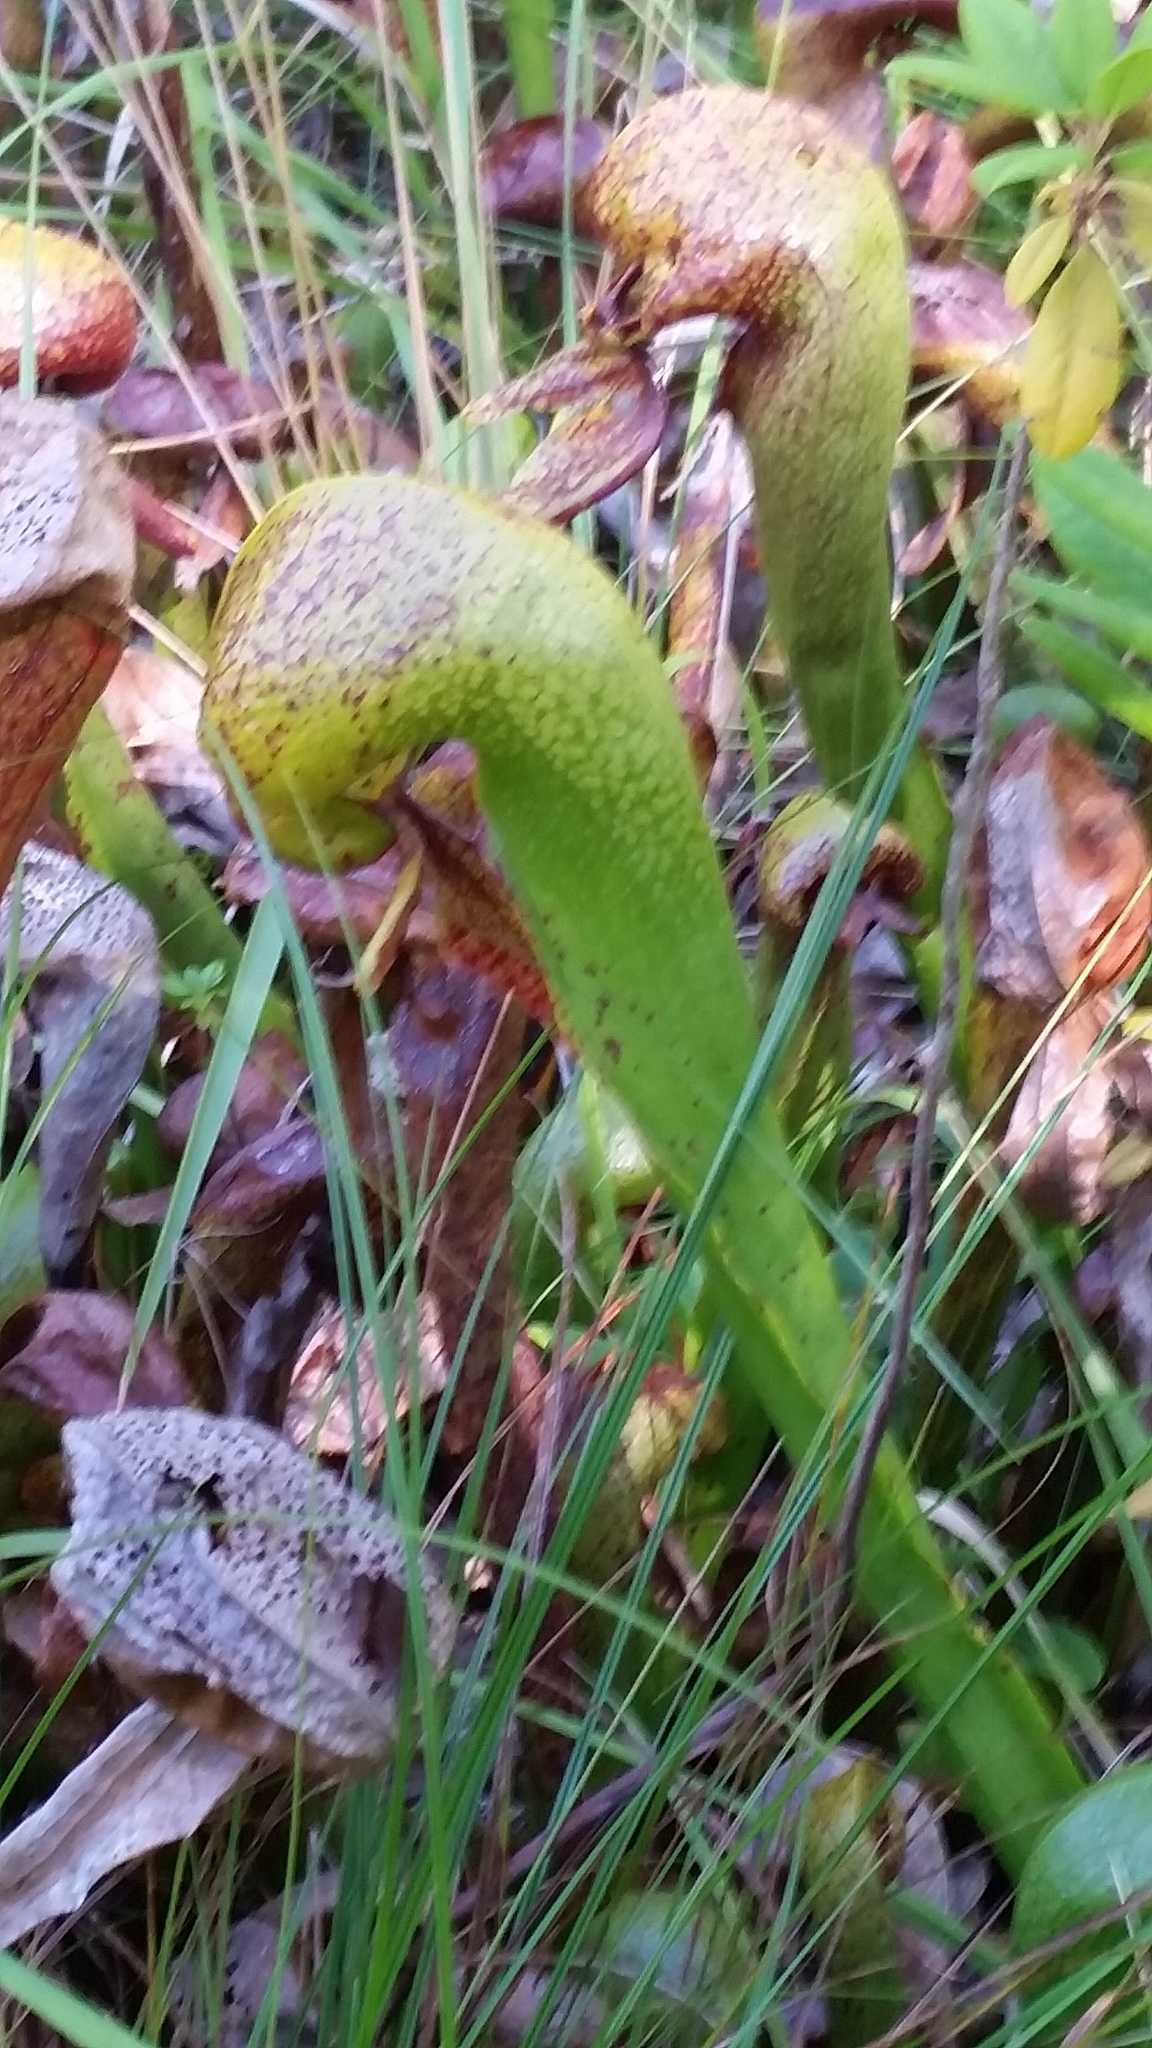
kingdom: Plantae
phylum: Tracheophyta
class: Magnoliopsida
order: Ericales
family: Sarraceniaceae
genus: Darlingtonia
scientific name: Darlingtonia californica
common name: California pitcher plant
